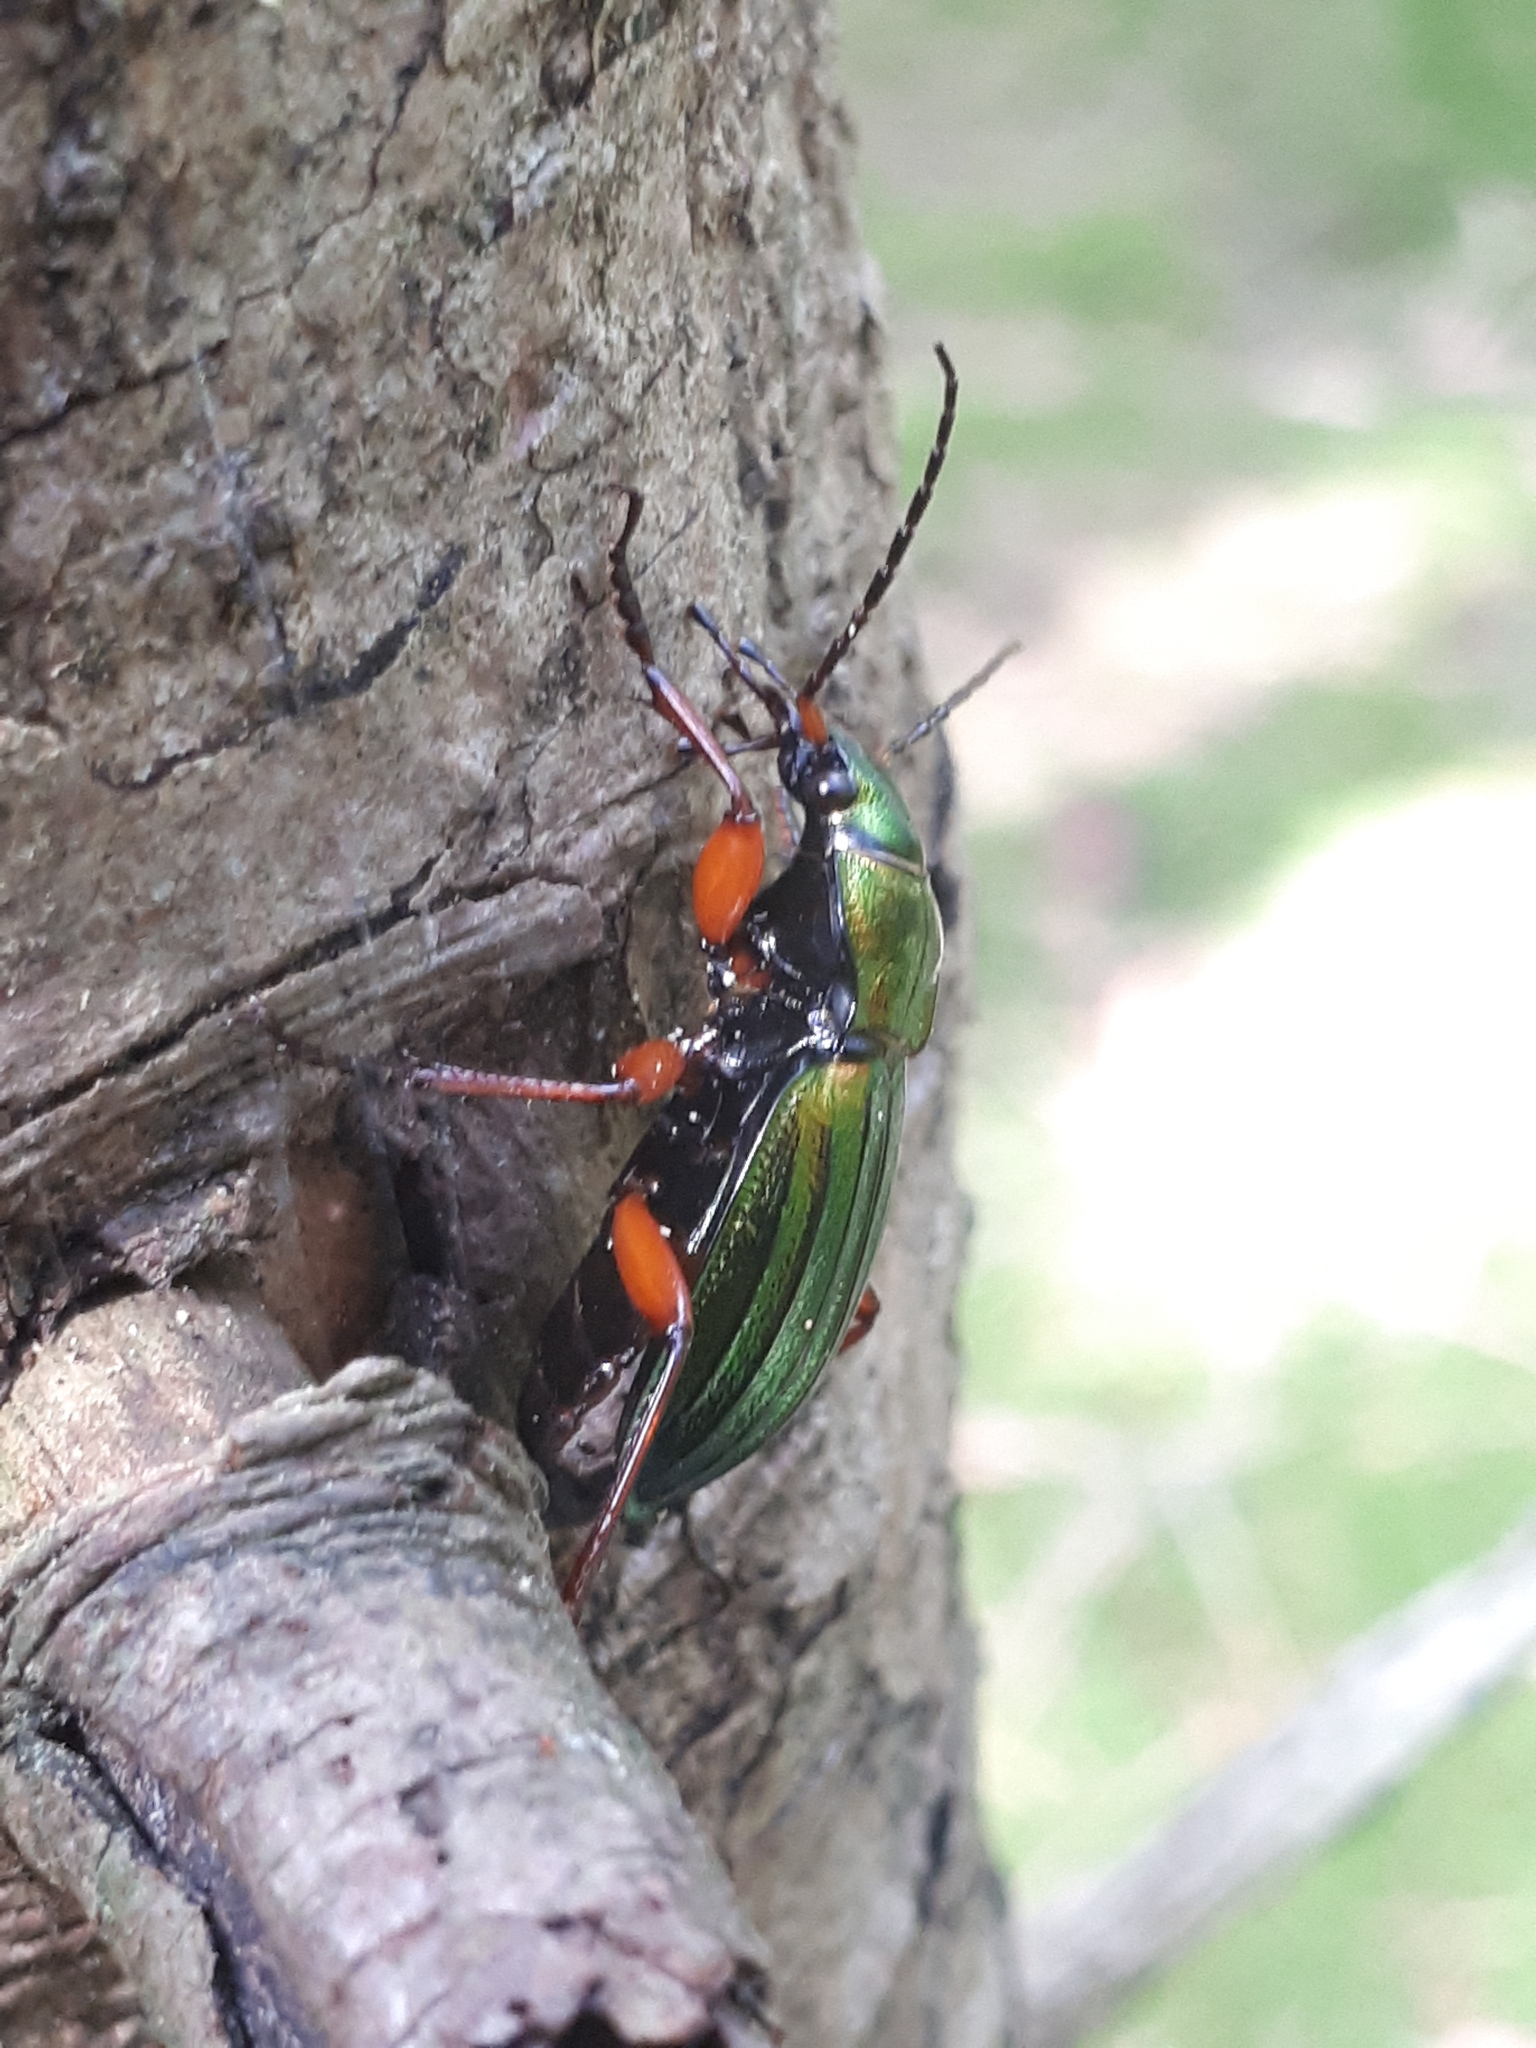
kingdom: Animalia
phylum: Arthropoda
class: Insecta
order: Coleoptera
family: Carabidae
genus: Carabus
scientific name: Carabus auronitens
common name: Carabus auronitens
